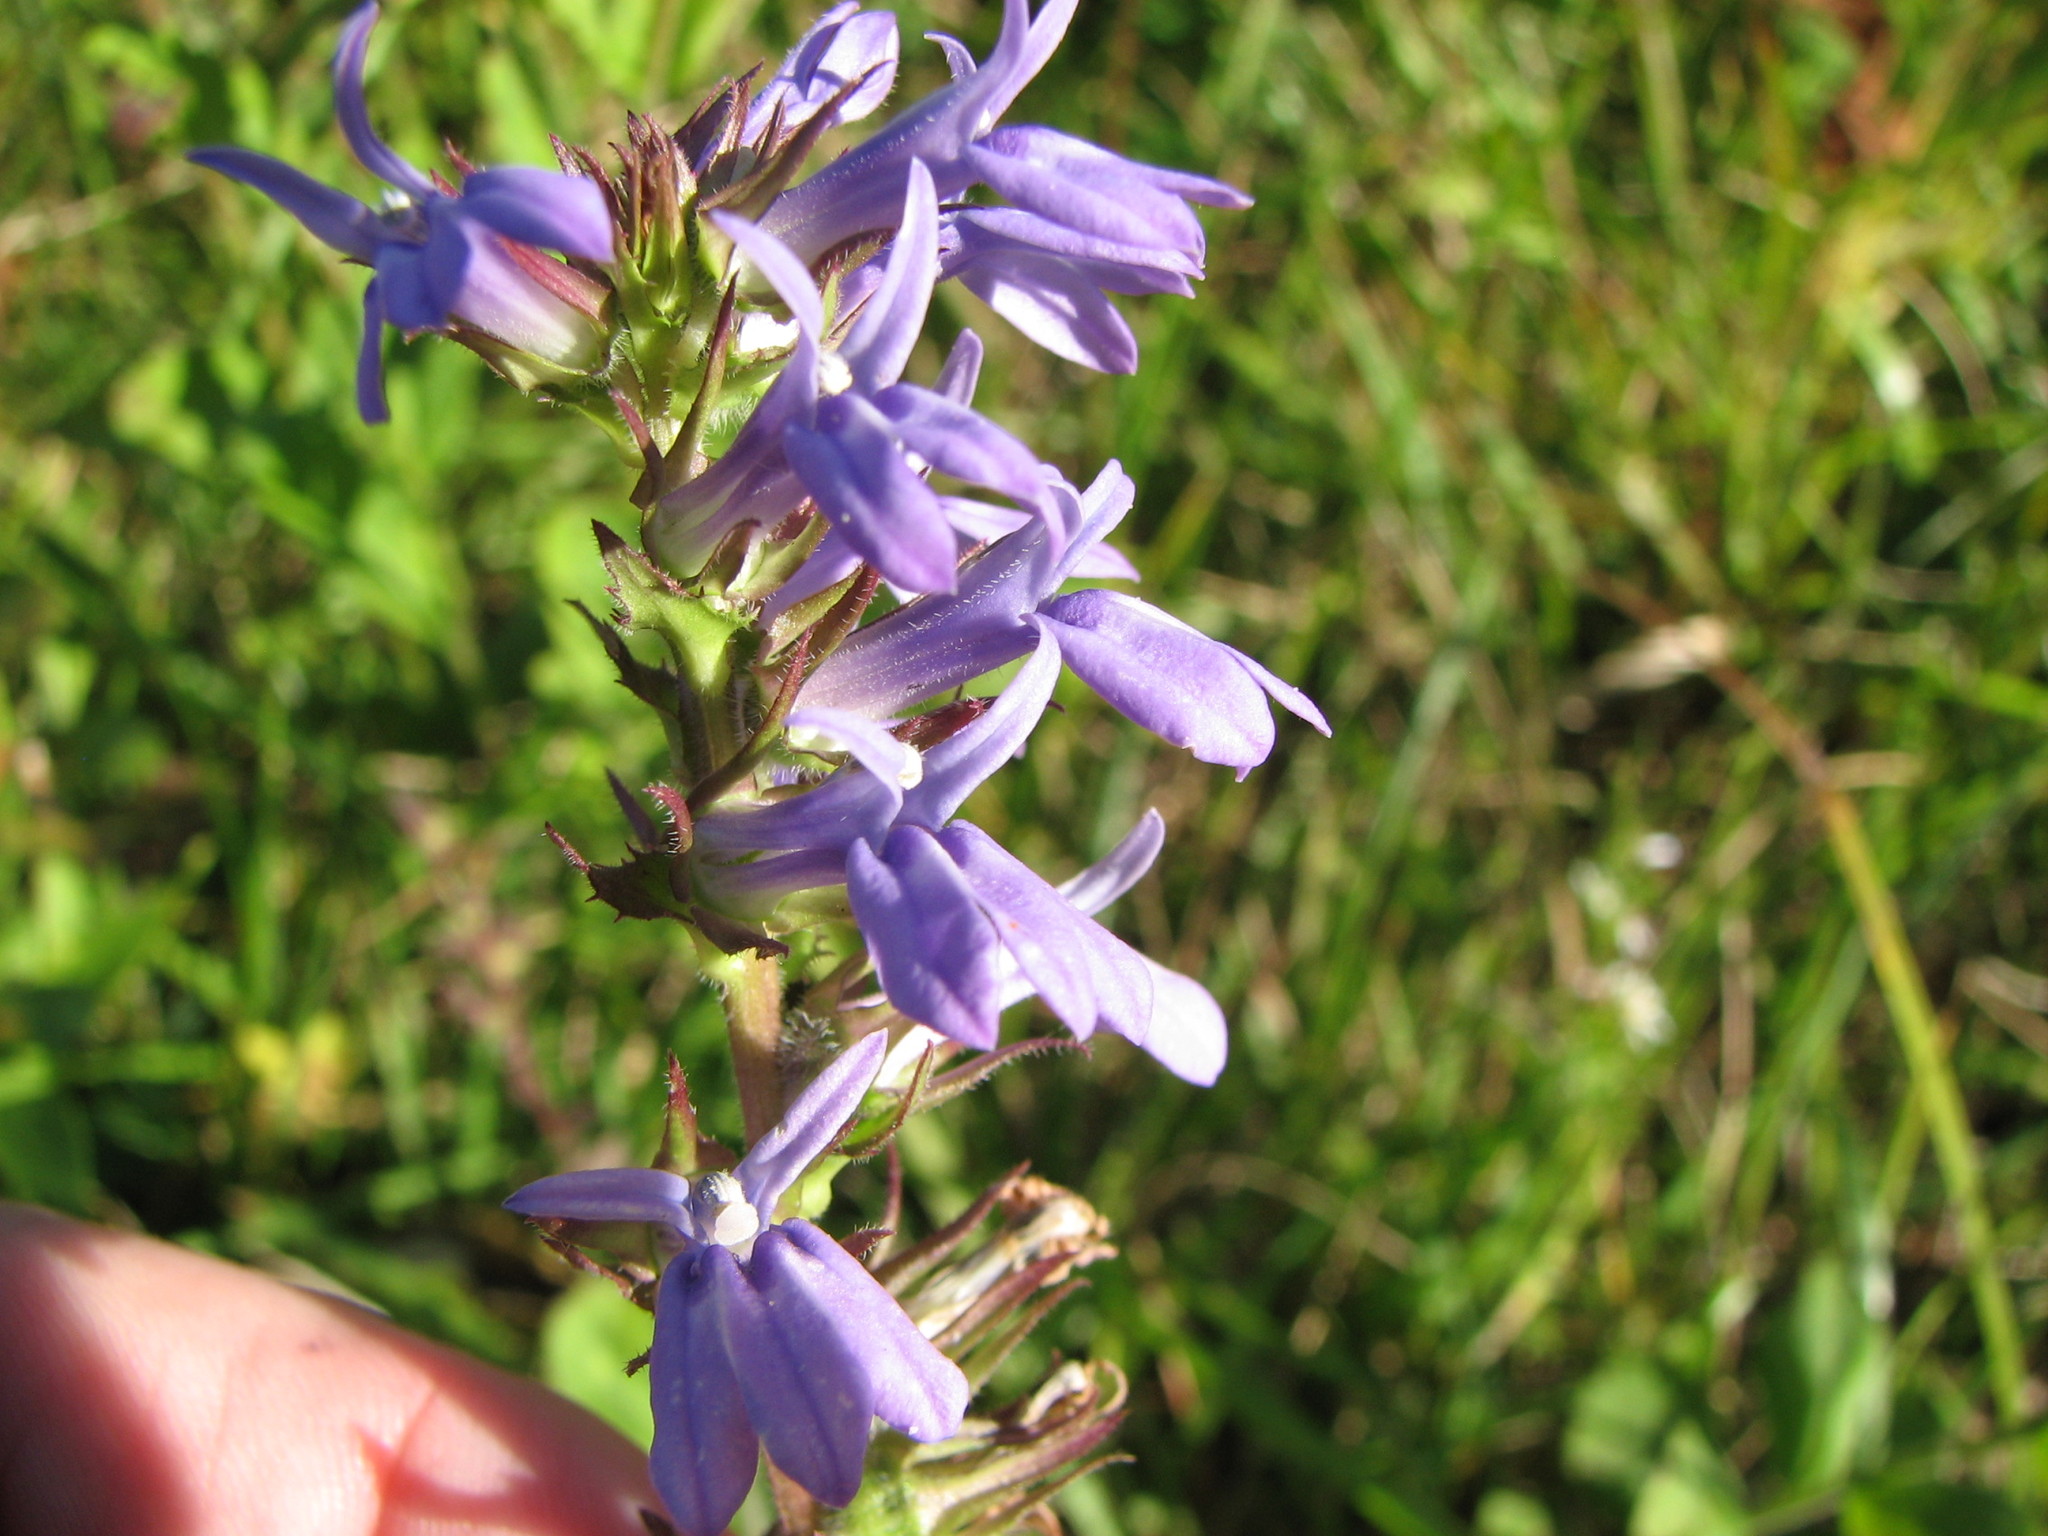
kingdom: Plantae
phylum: Tracheophyta
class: Magnoliopsida
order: Asterales
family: Campanulaceae
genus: Lobelia
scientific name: Lobelia puberula
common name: Purple dewdrop
